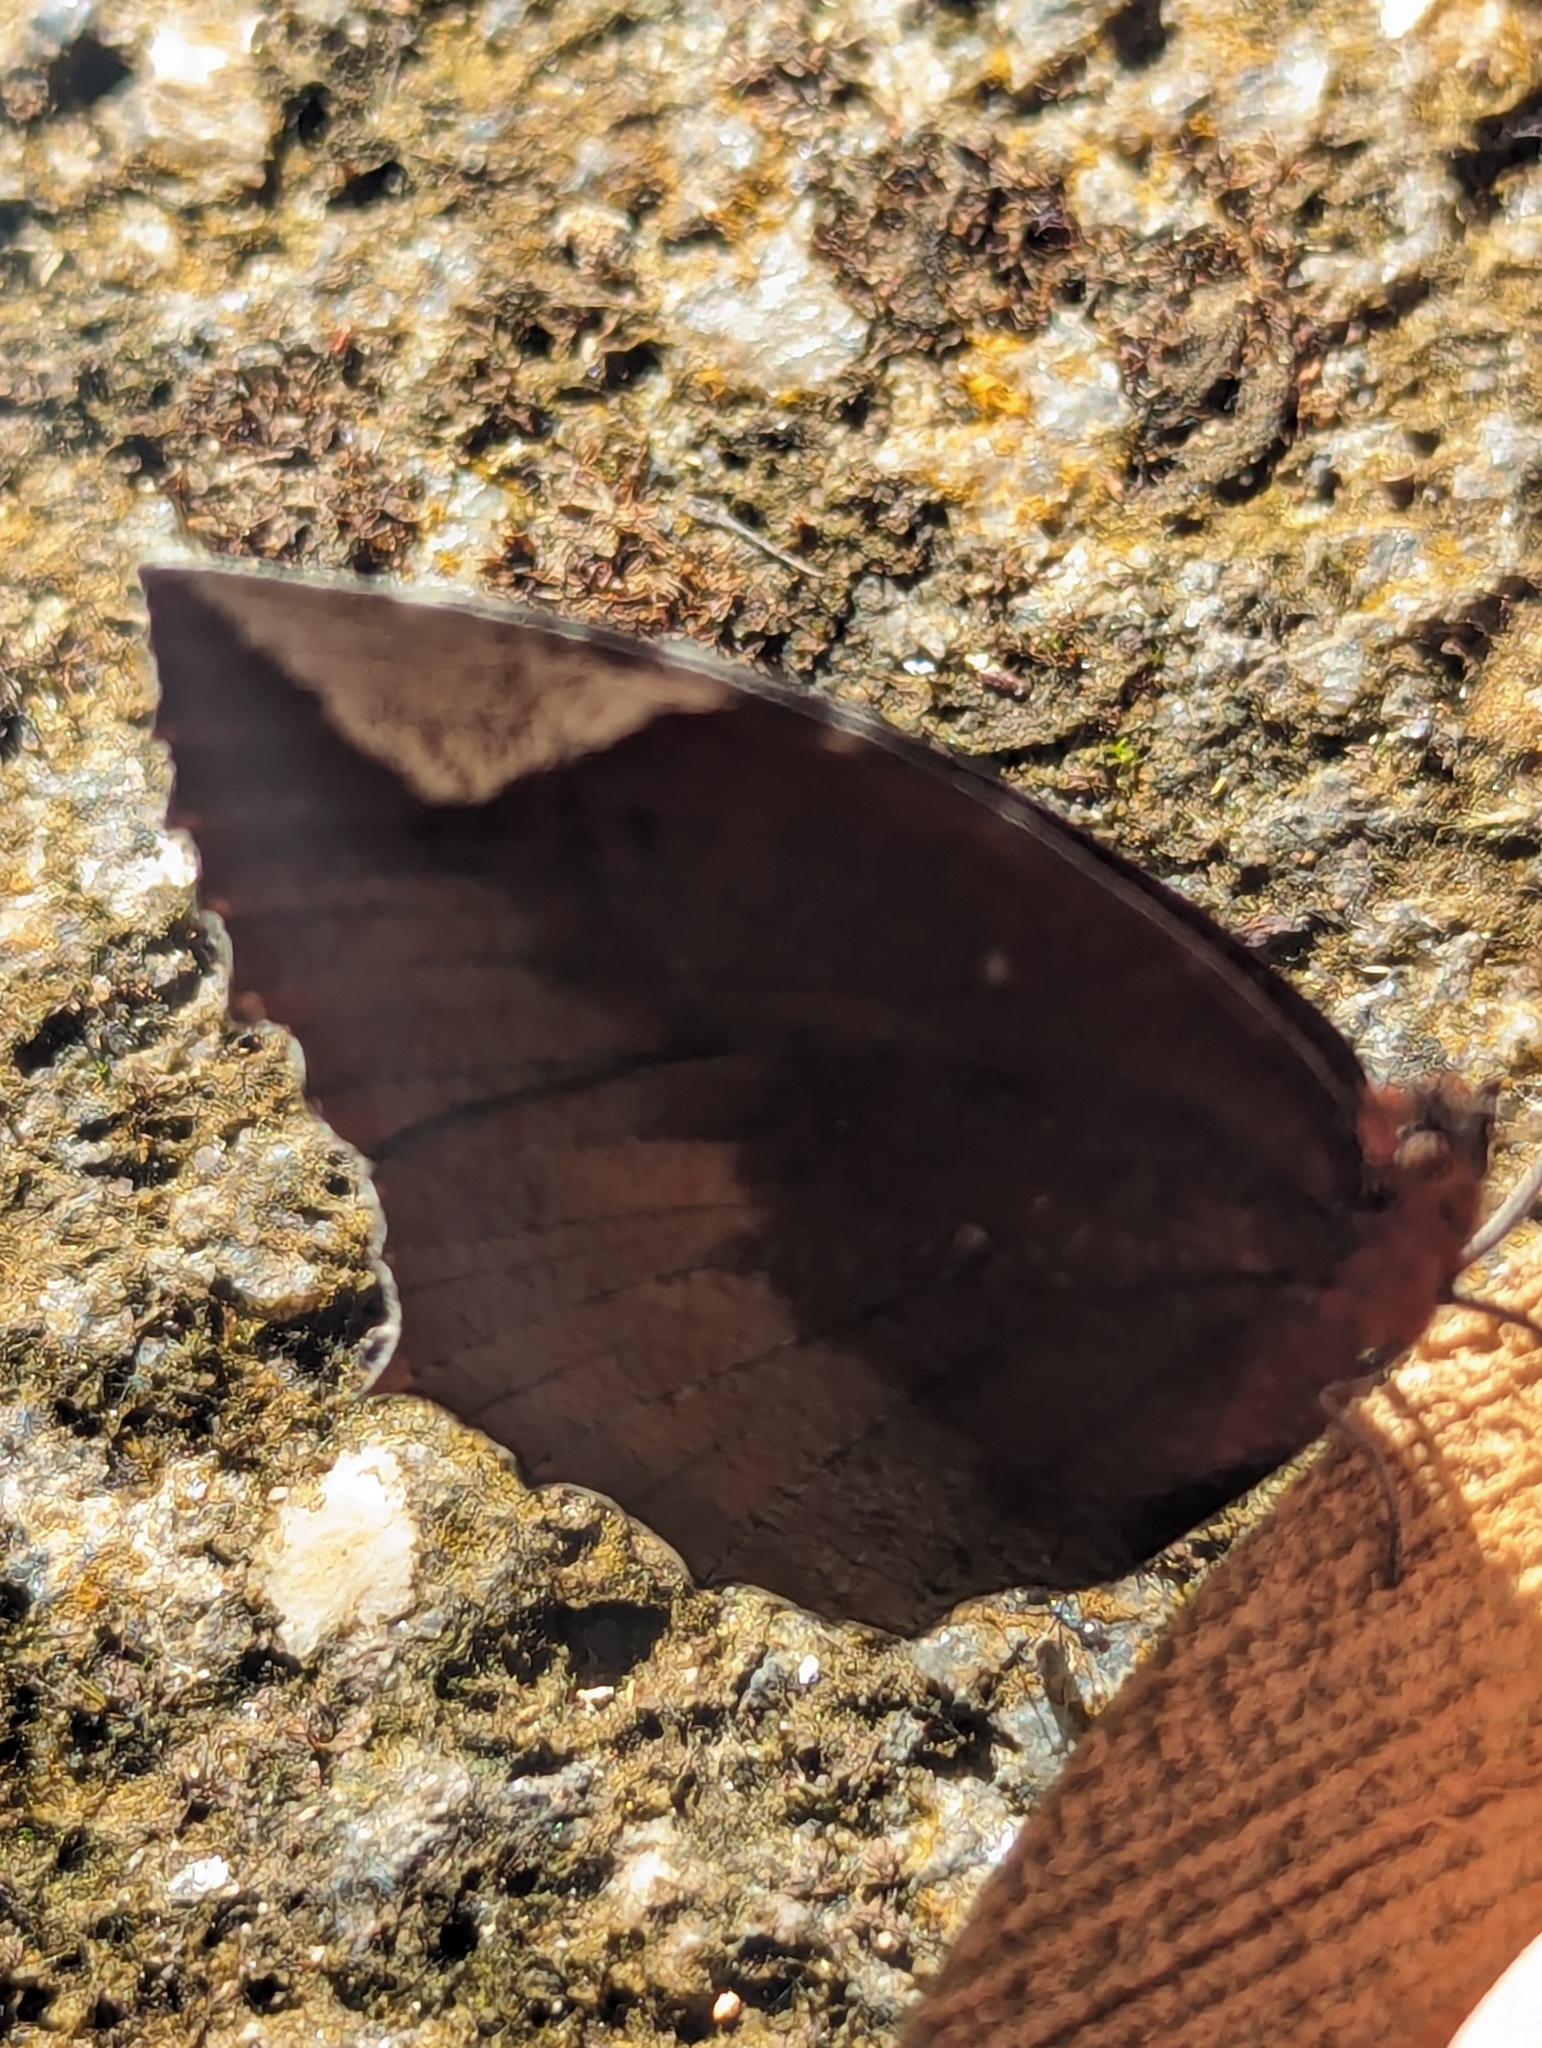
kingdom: Animalia
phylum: Arthropoda
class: Insecta
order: Lepidoptera
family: Nymphalidae
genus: Elymnias
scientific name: Elymnias hypermnestra
